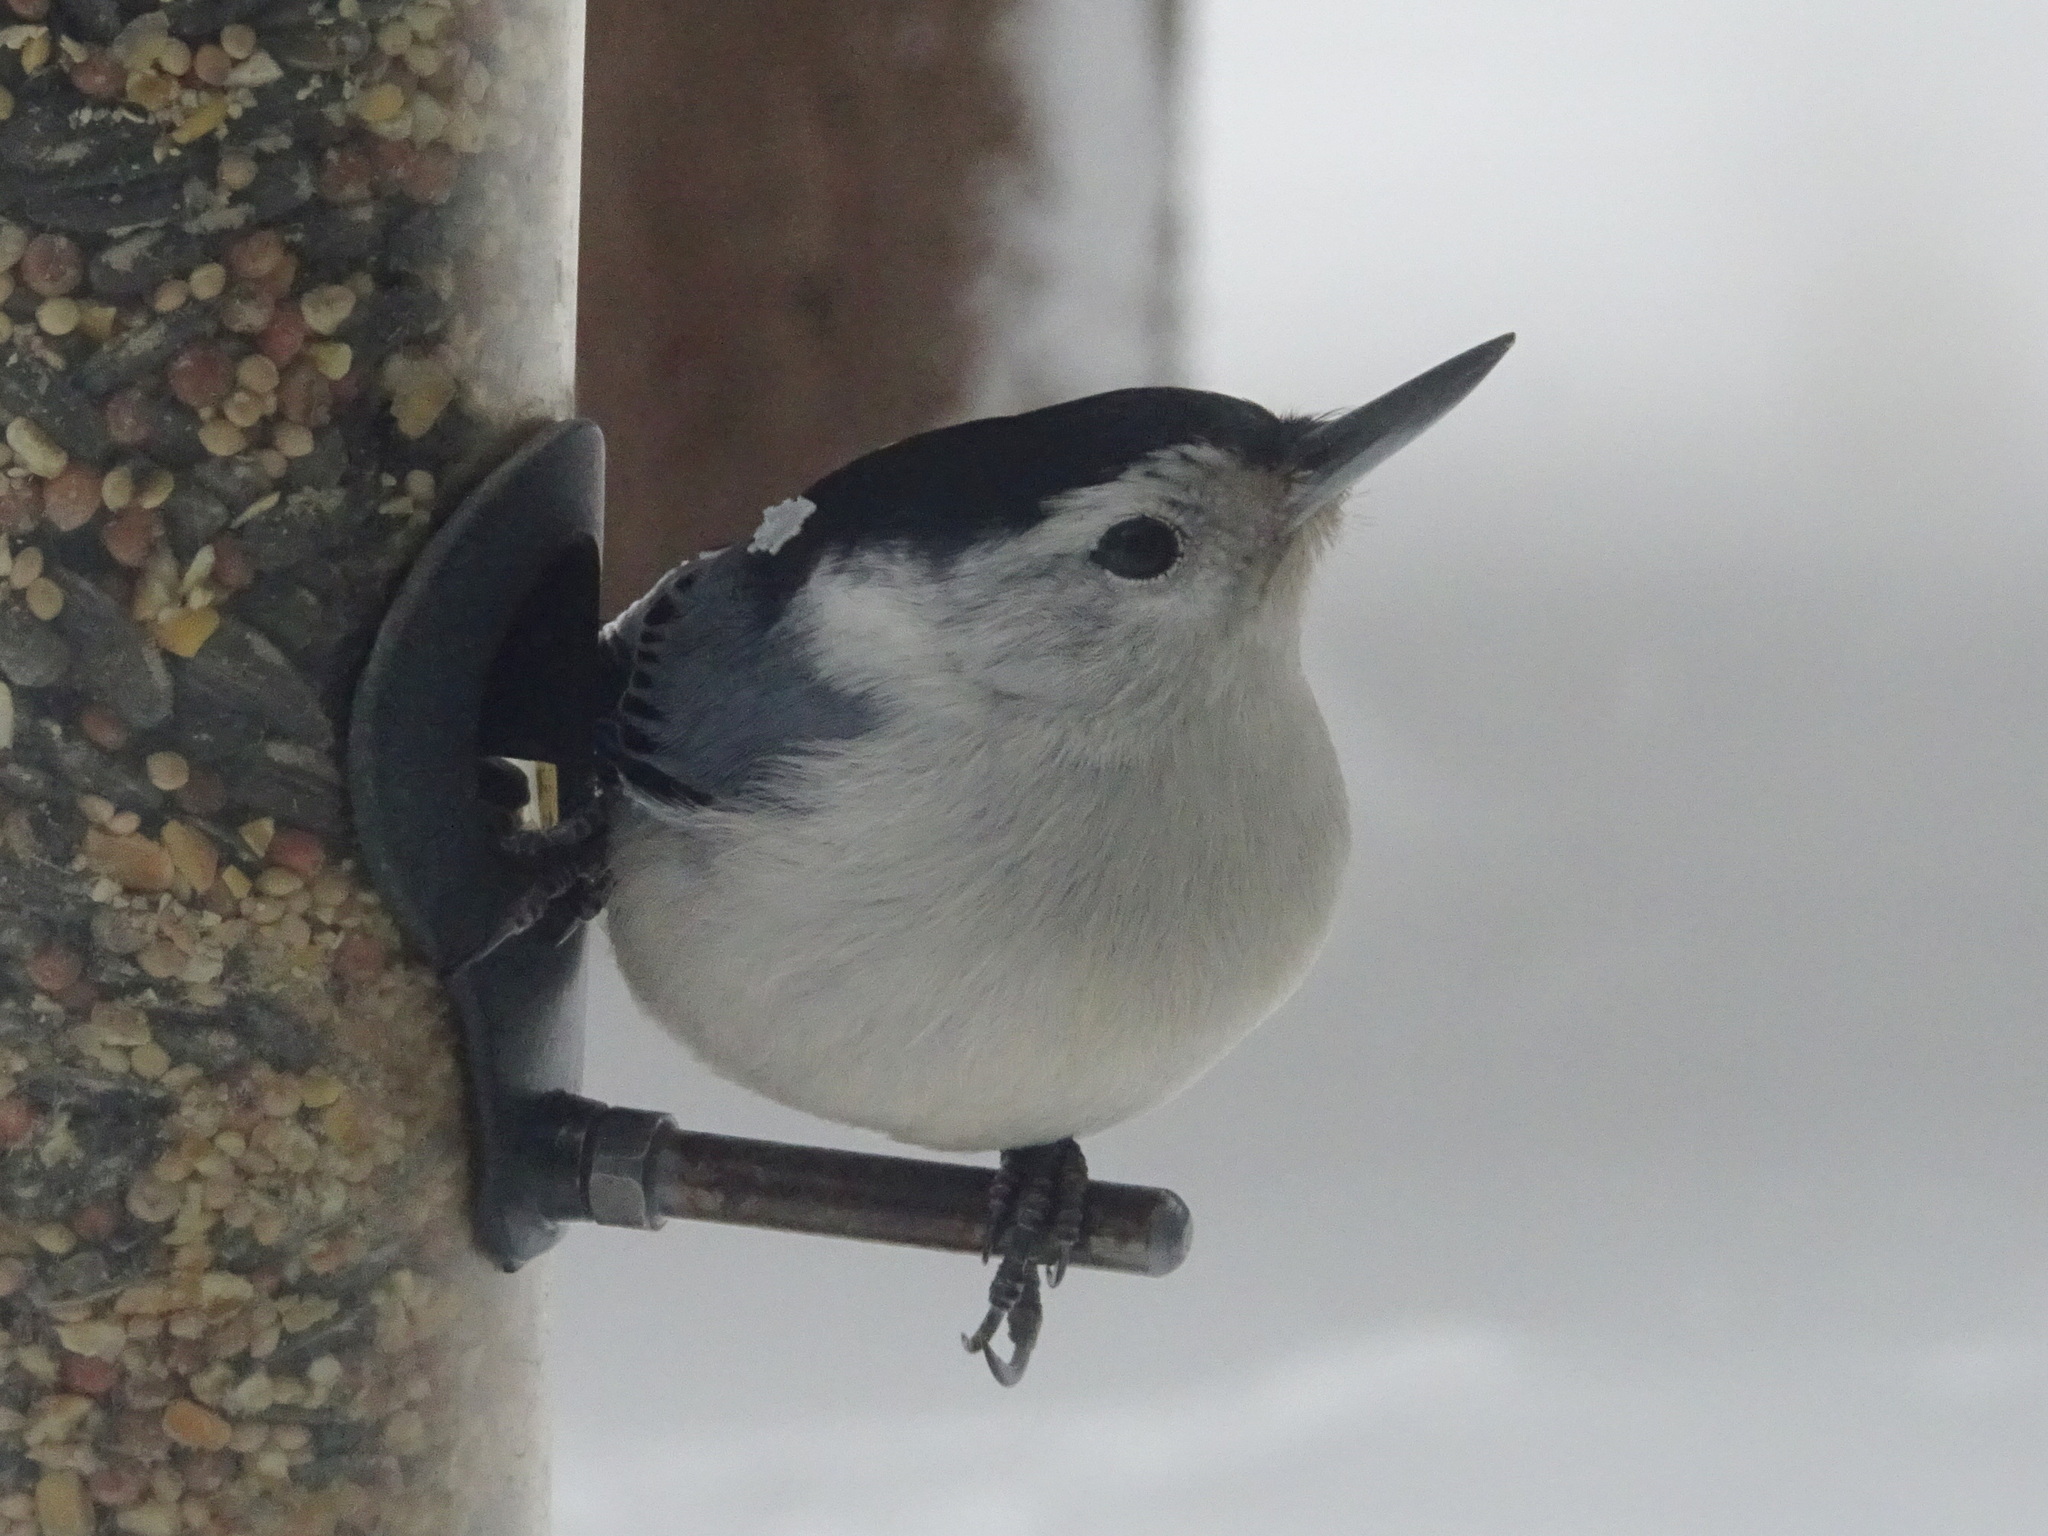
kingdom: Animalia
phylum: Chordata
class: Aves
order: Passeriformes
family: Sittidae
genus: Sitta
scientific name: Sitta carolinensis
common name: White-breasted nuthatch
